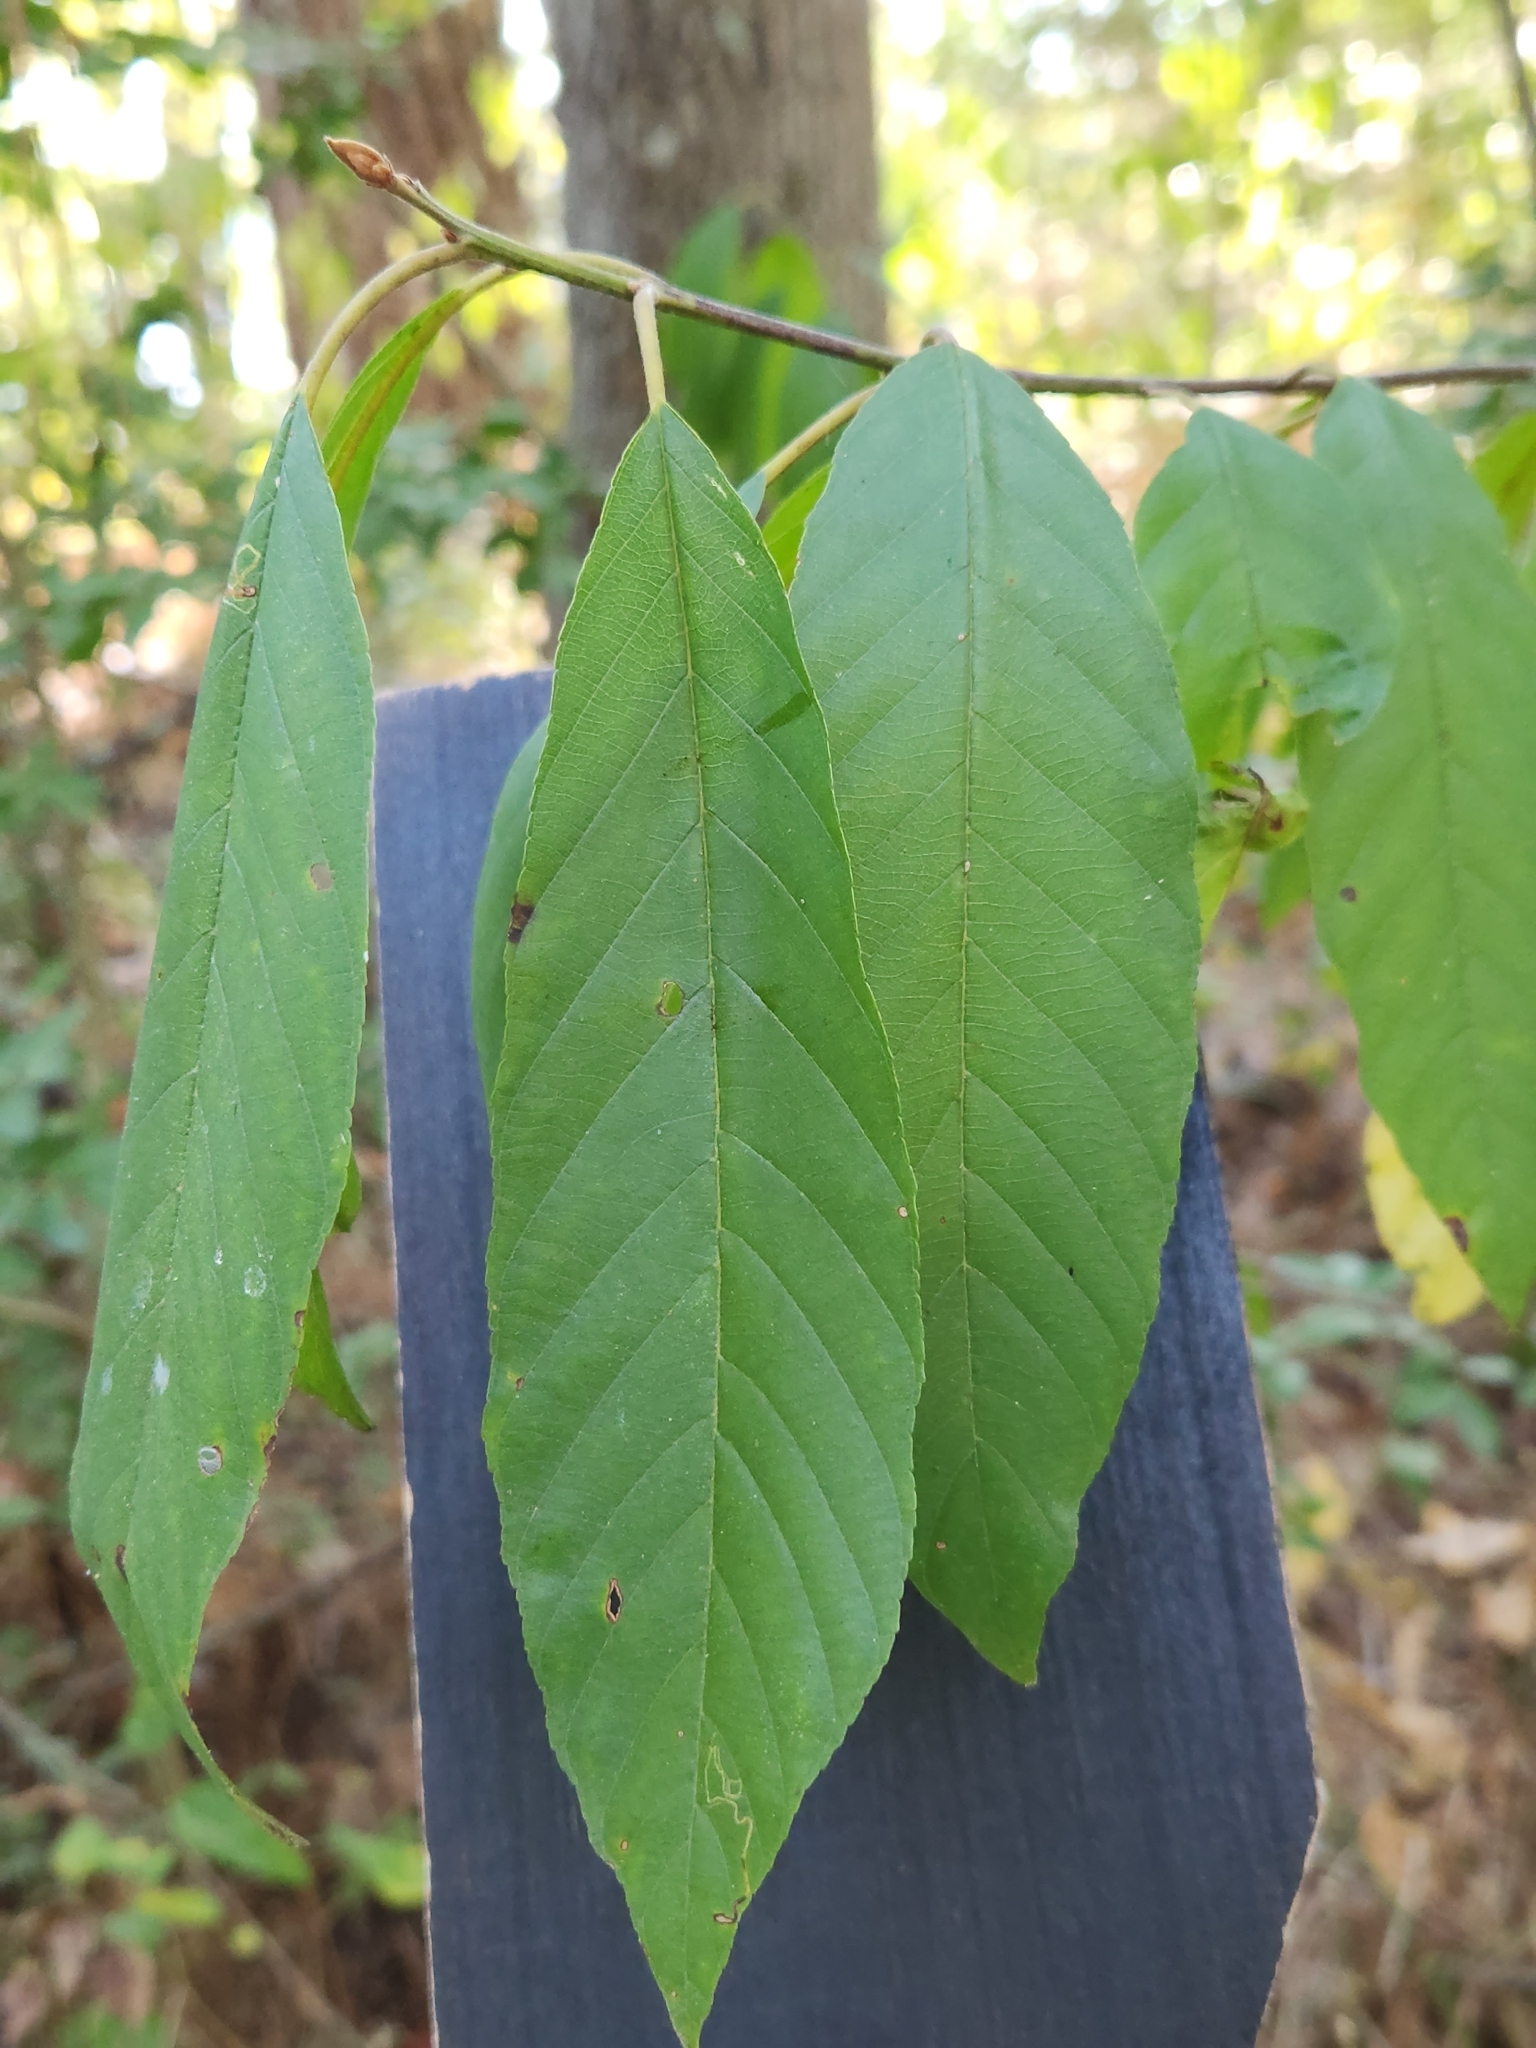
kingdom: Plantae
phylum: Tracheophyta
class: Magnoliopsida
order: Rosales
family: Rhamnaceae
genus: Frangula
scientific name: Frangula caroliniana
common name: Carolina buckthorn
